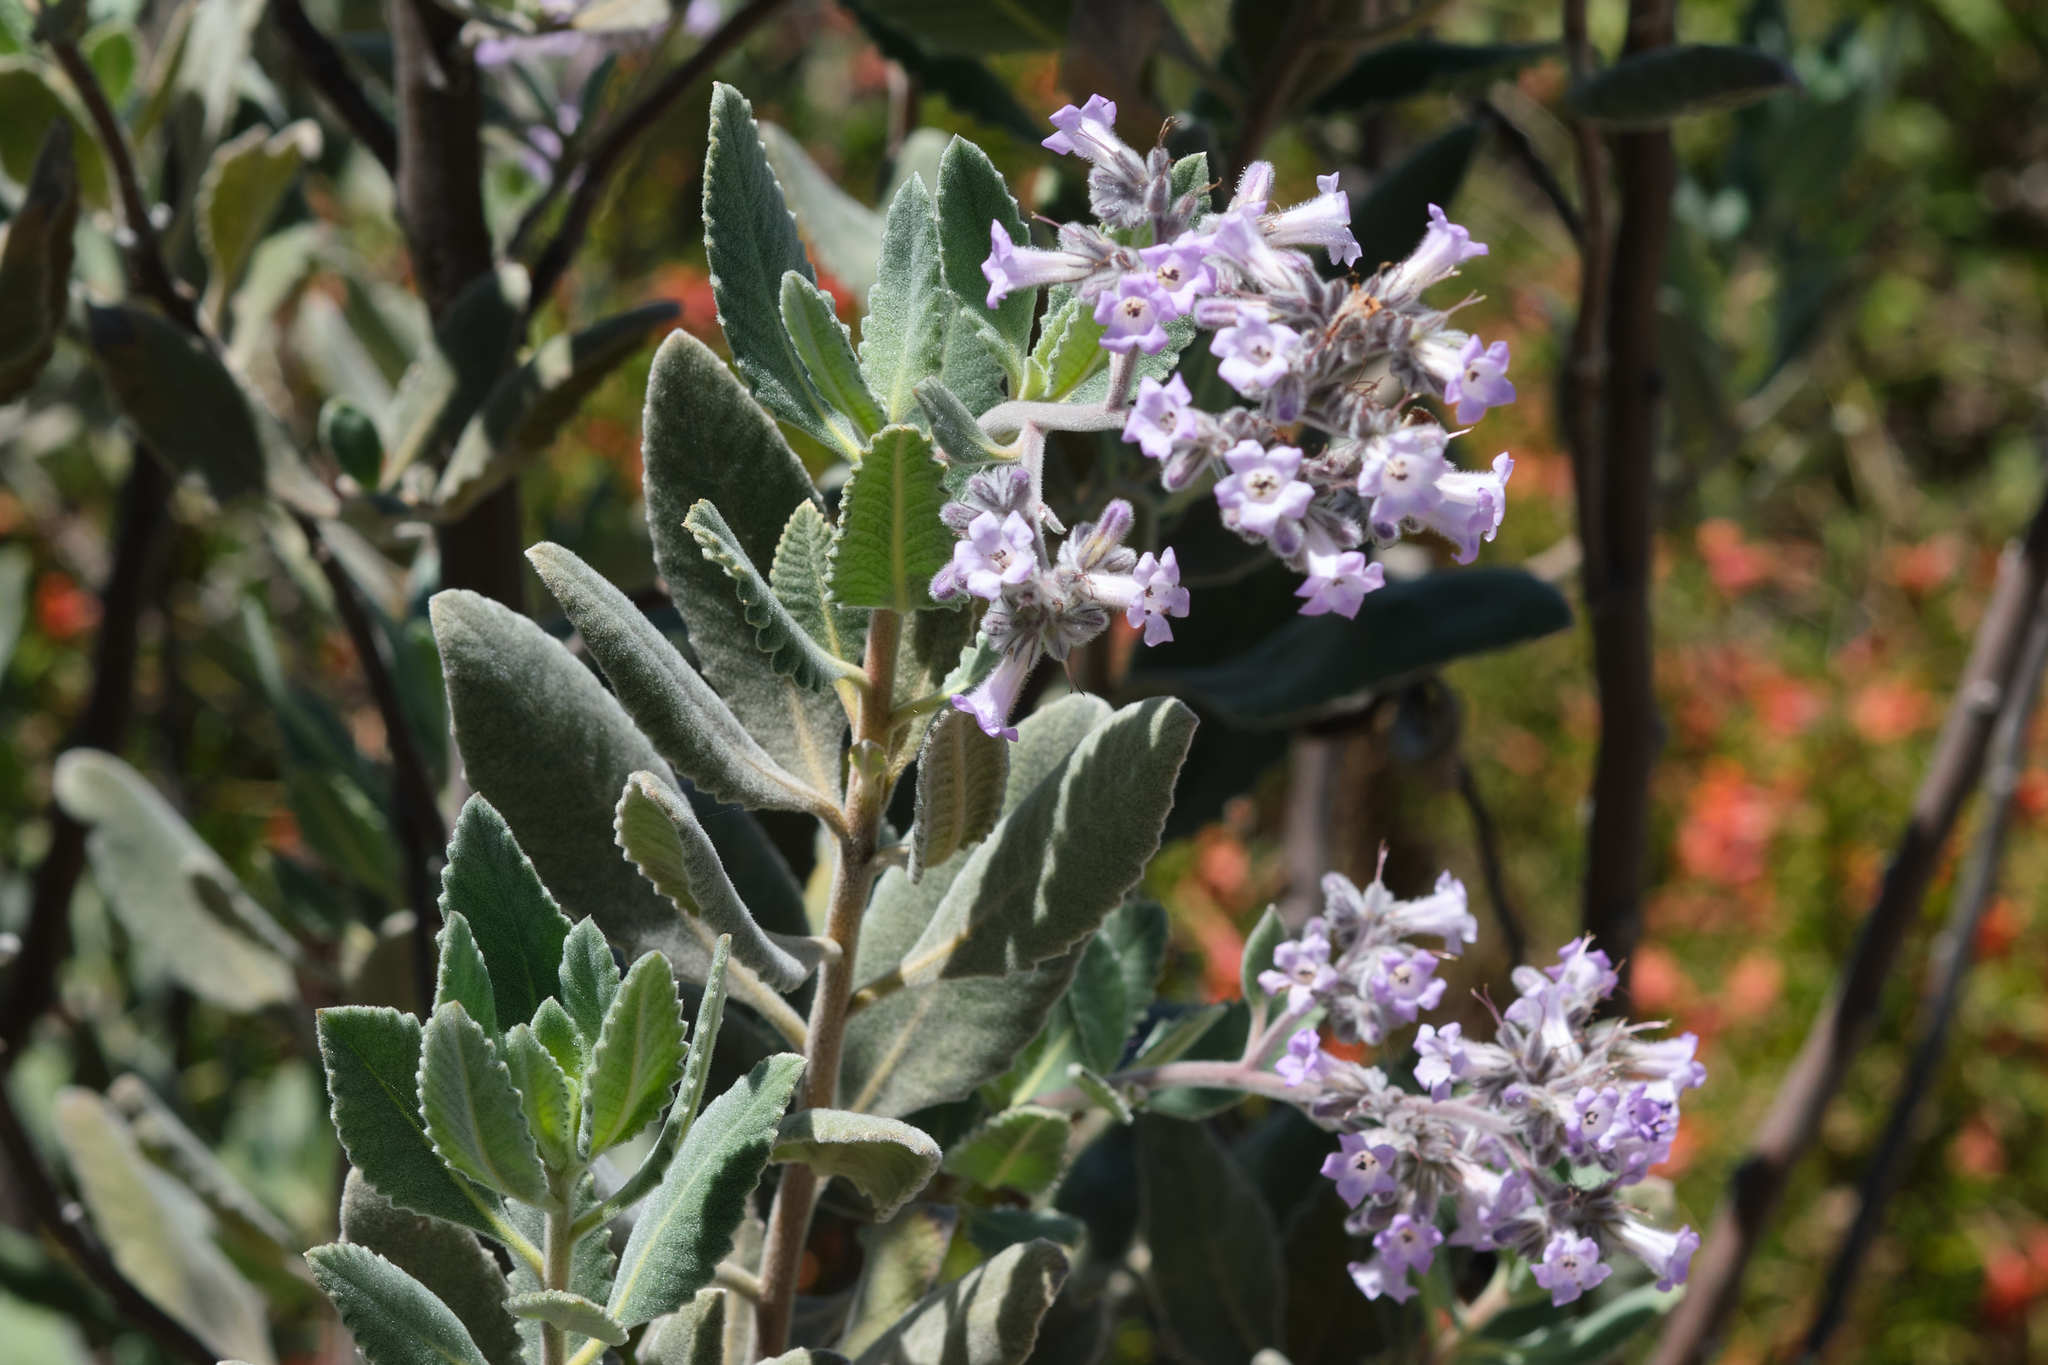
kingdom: Plantae
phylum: Tracheophyta
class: Magnoliopsida
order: Boraginales
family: Namaceae
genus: Eriodictyon
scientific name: Eriodictyon crassifolium
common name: Thick-leaf yerba-santa
